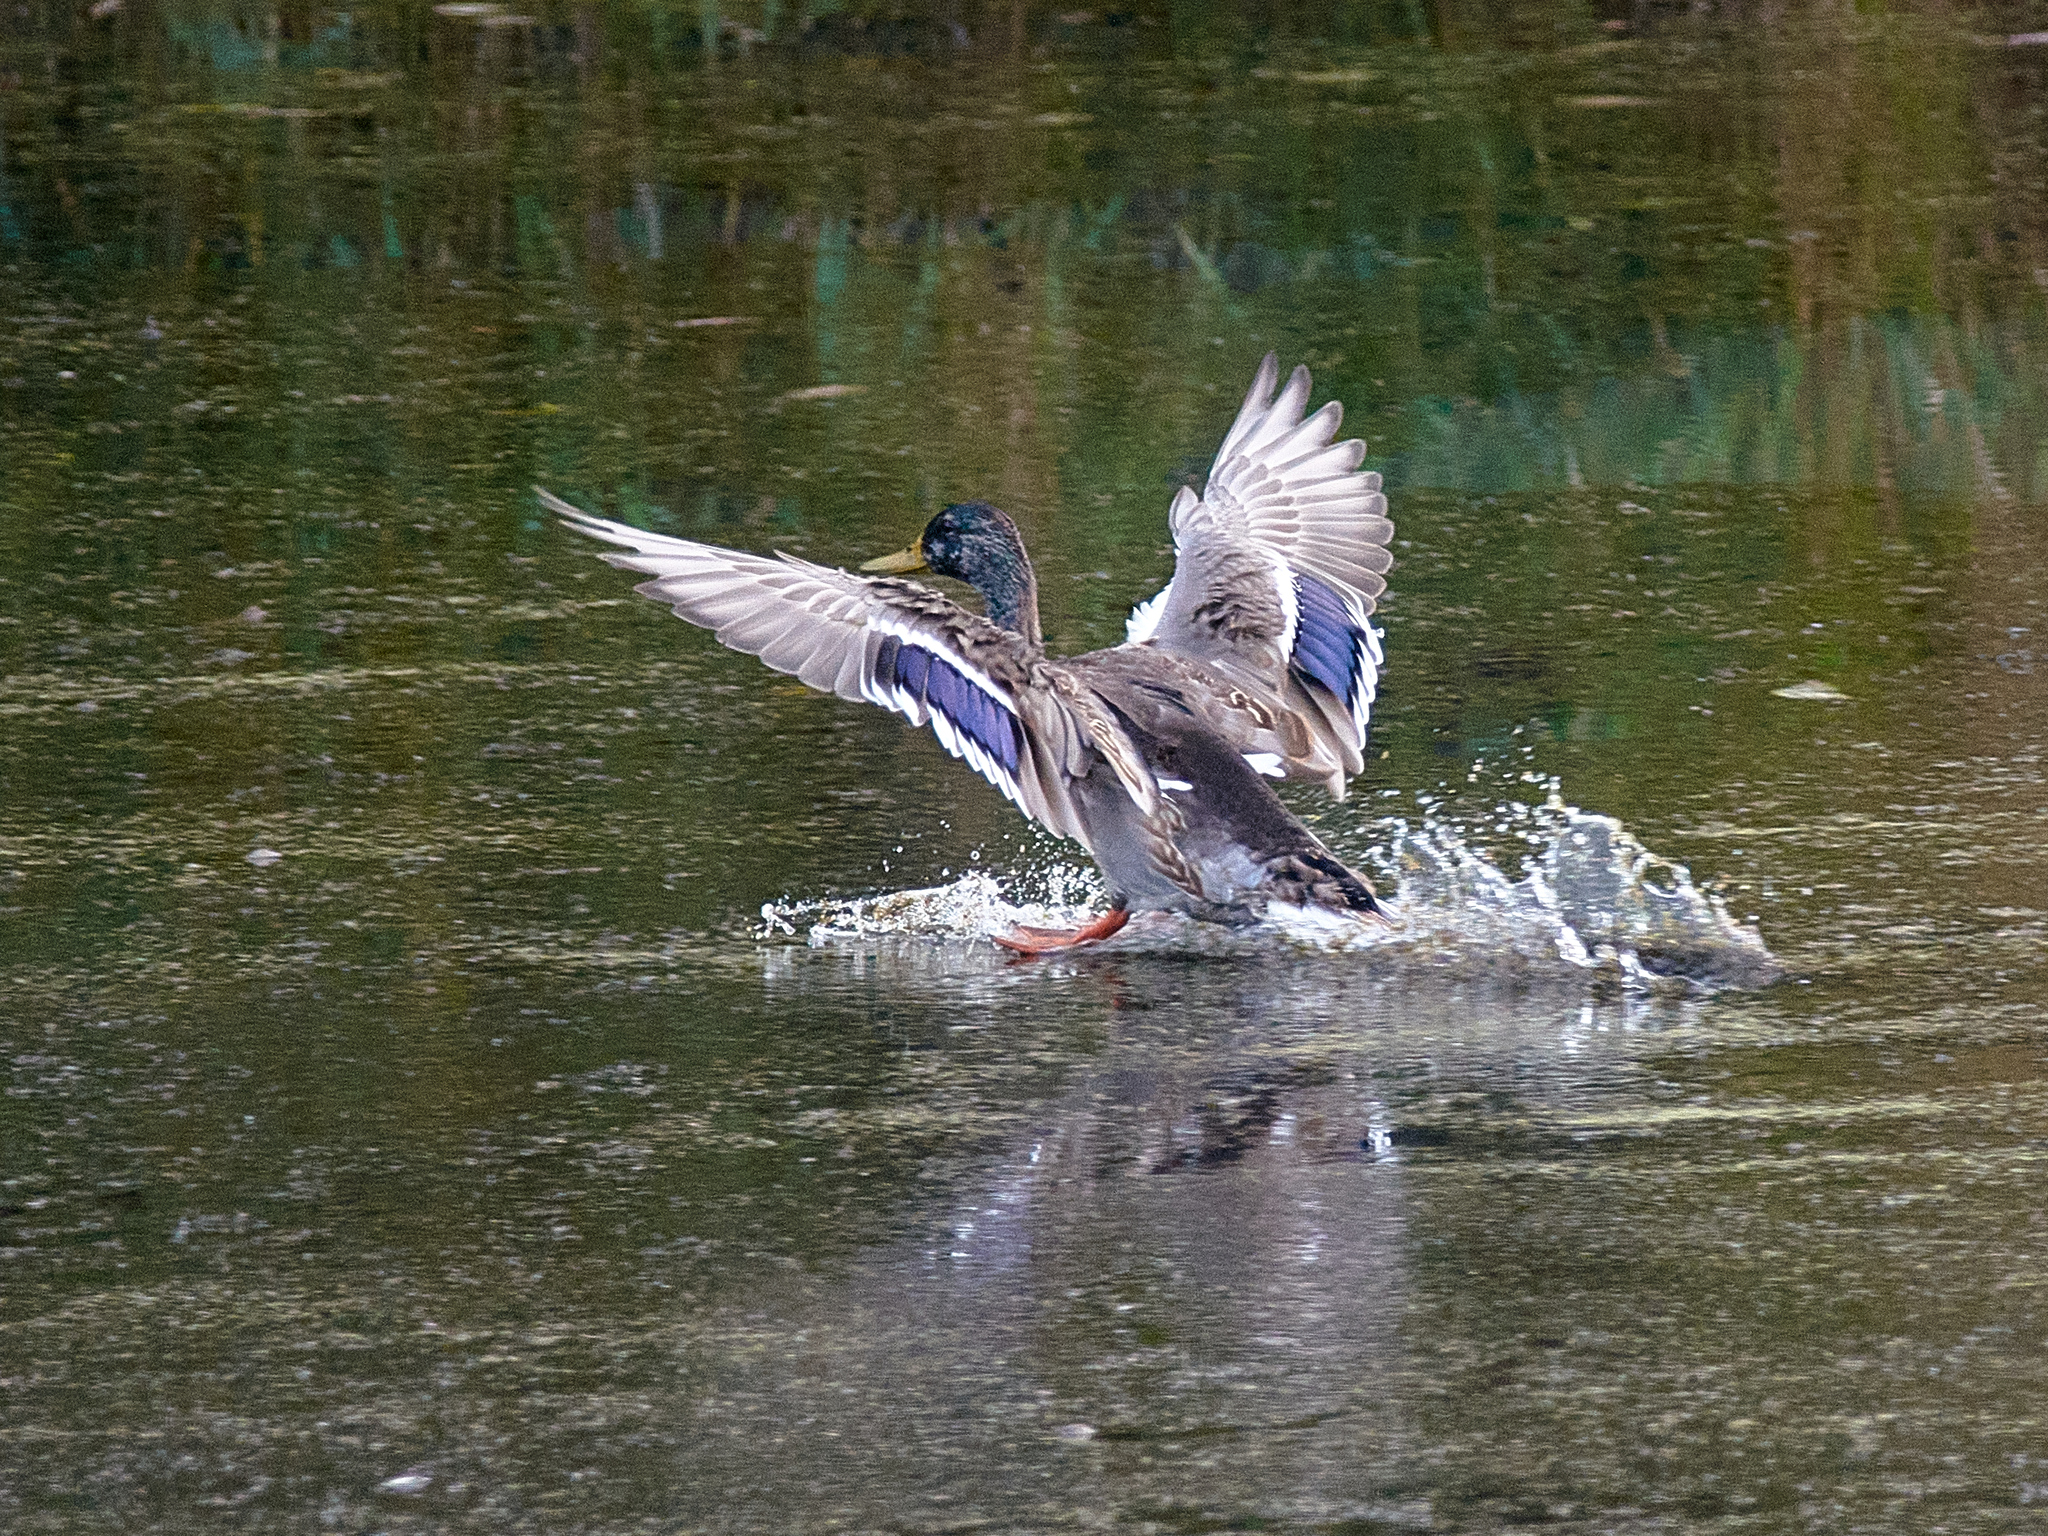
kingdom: Animalia
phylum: Chordata
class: Aves
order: Anseriformes
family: Anatidae
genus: Anas
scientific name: Anas platyrhynchos
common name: Mallard
